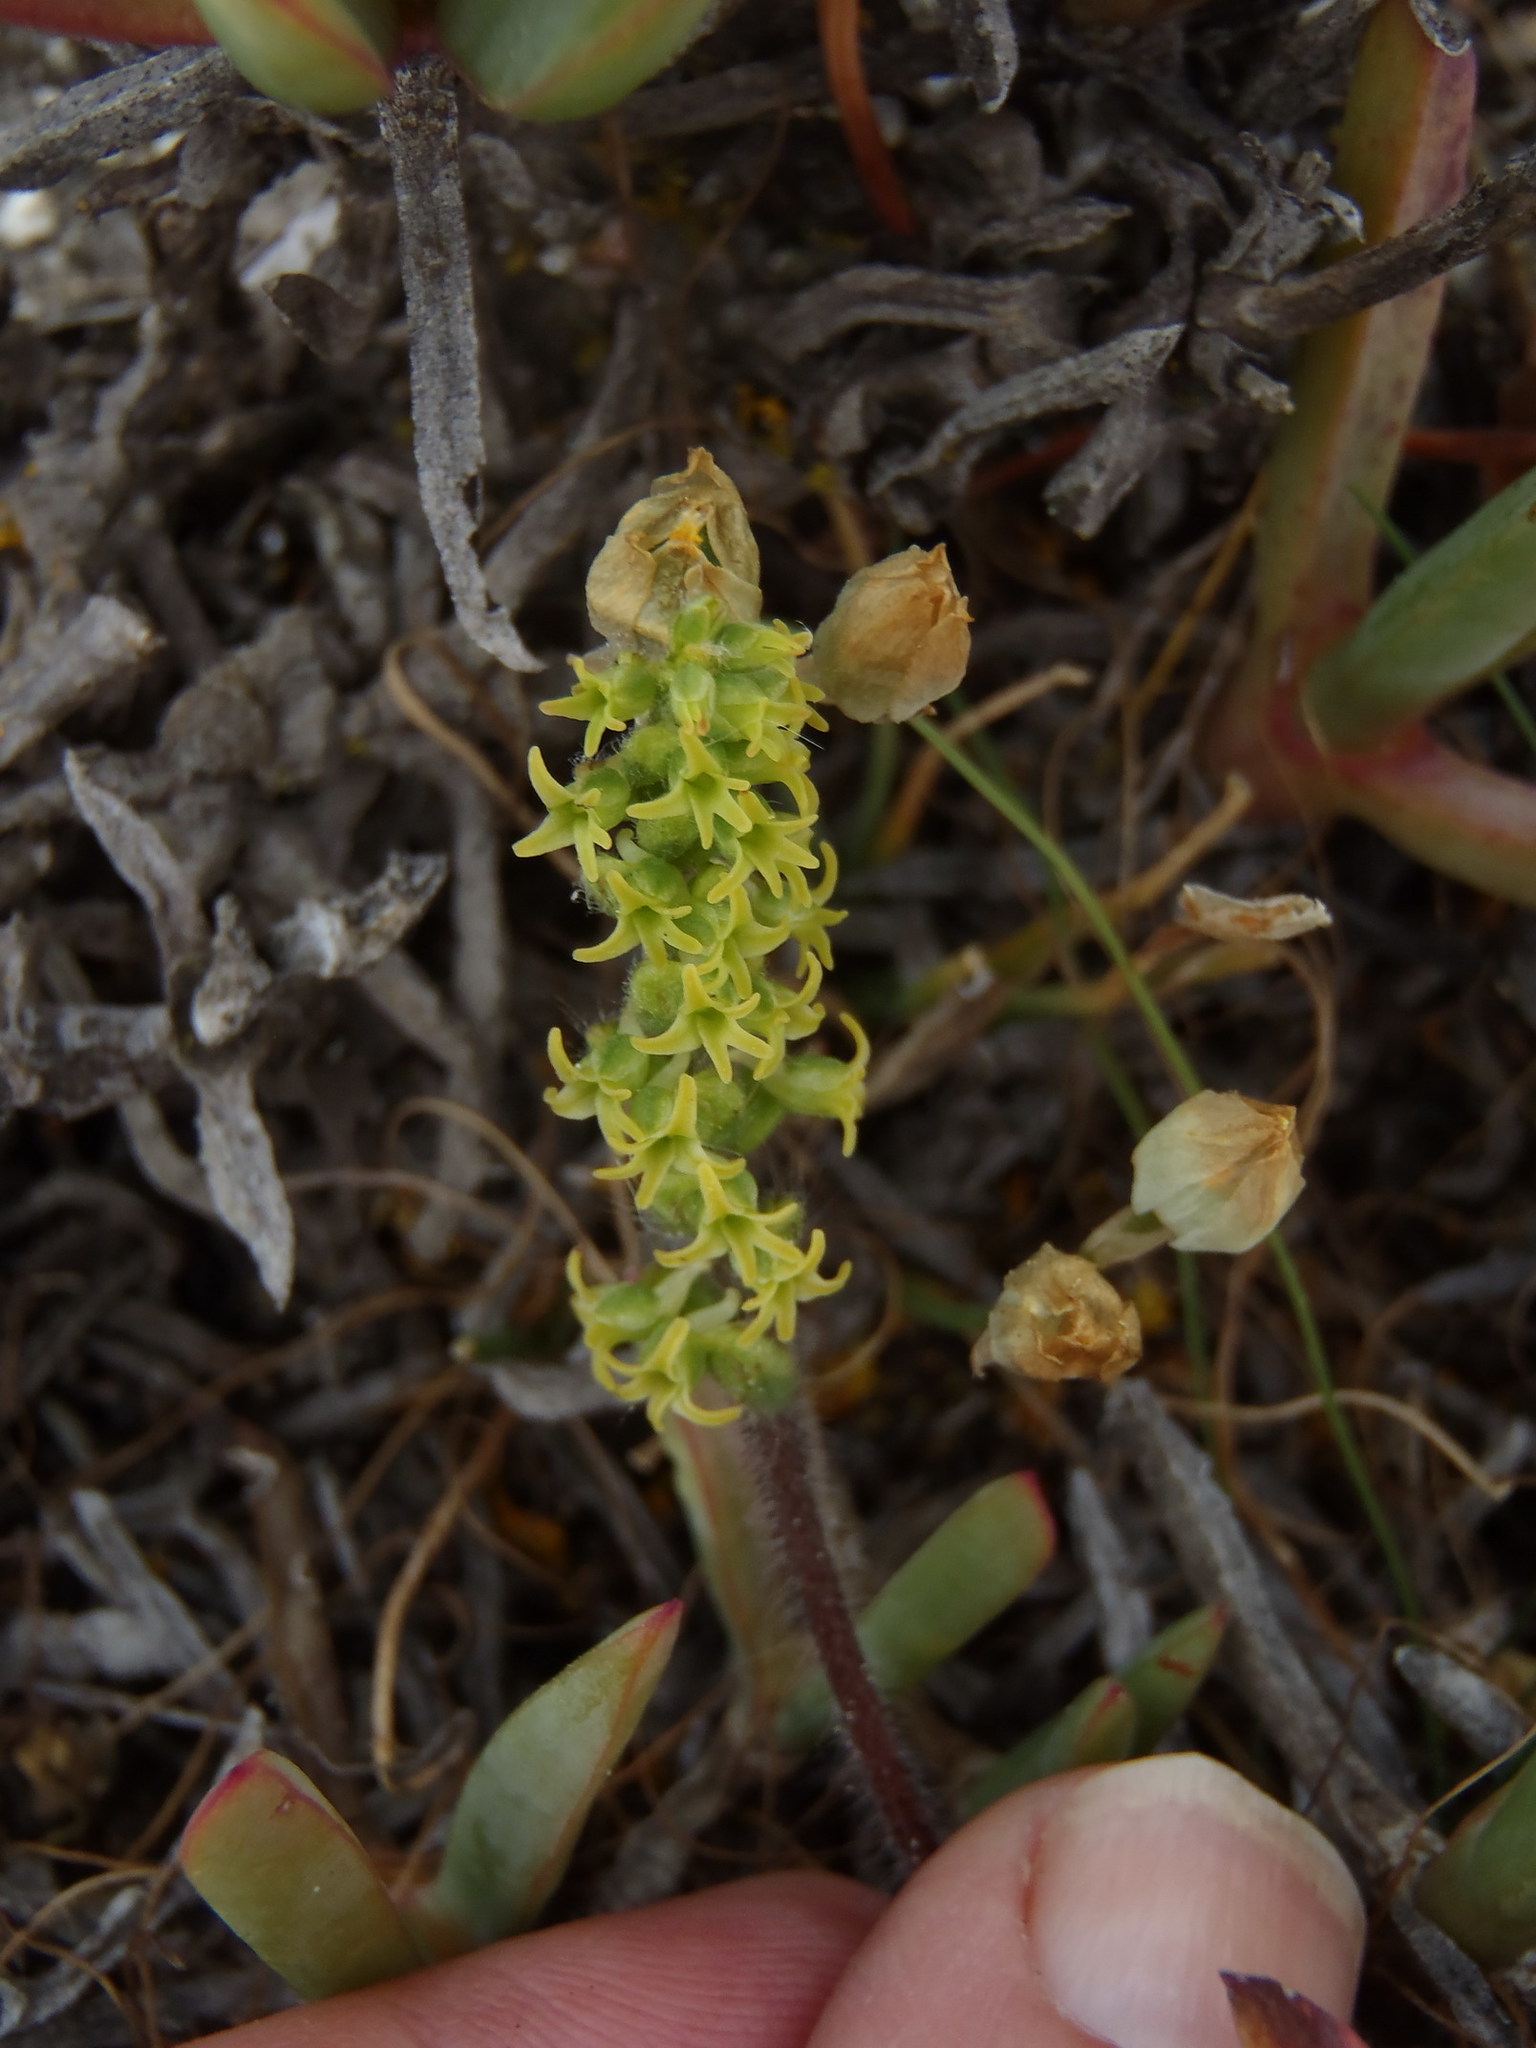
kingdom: Plantae
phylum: Tracheophyta
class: Liliopsida
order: Asparagales
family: Orchidaceae
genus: Holothrix
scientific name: Holothrix condensata
